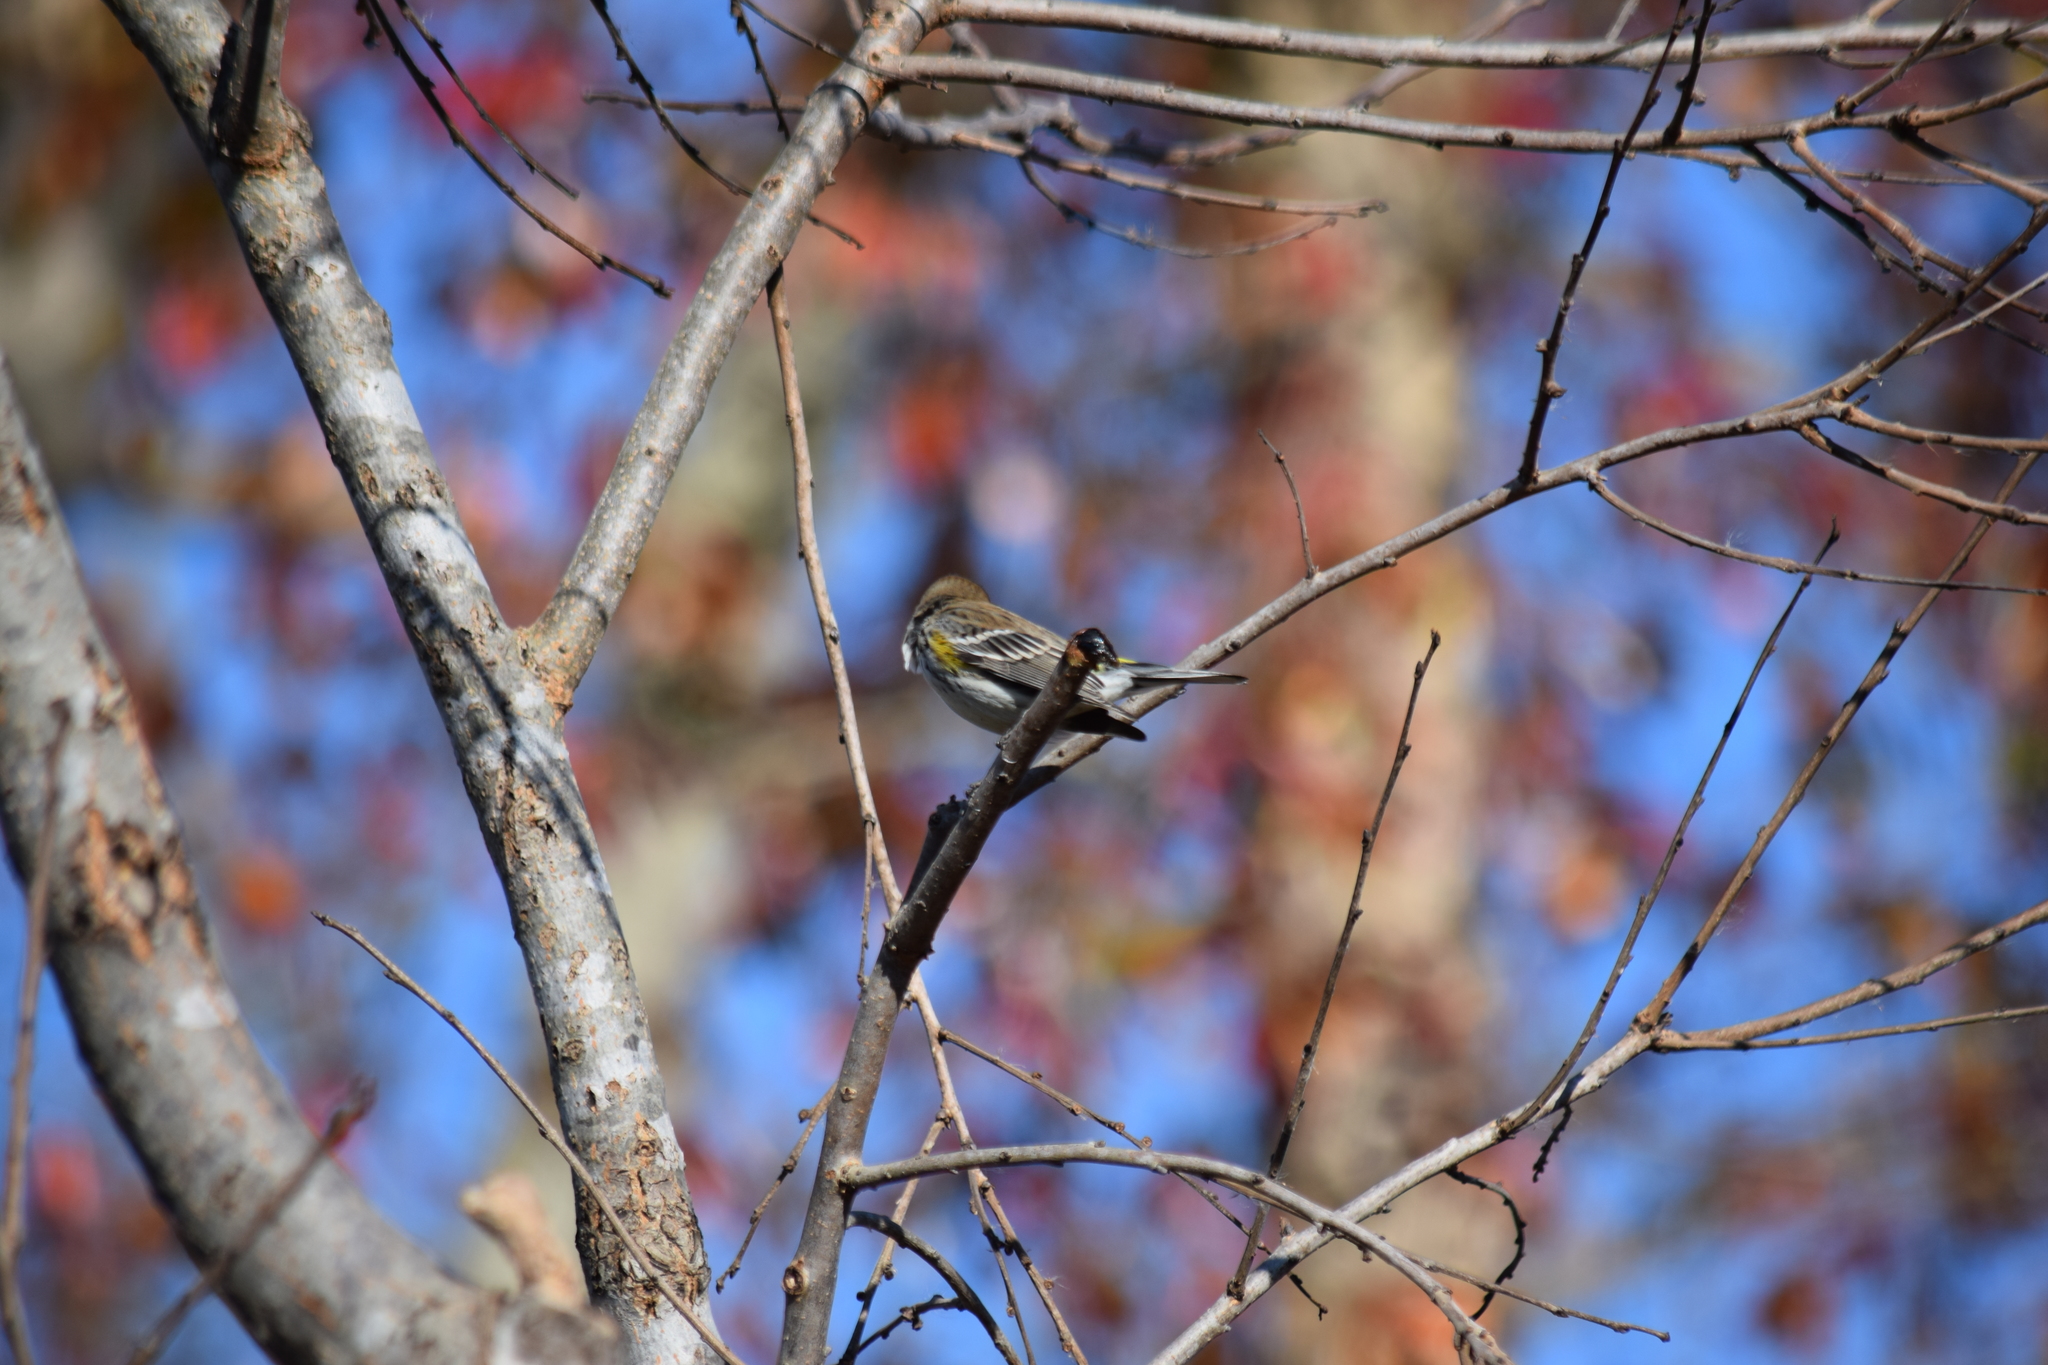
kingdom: Animalia
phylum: Chordata
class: Aves
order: Passeriformes
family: Parulidae
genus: Setophaga
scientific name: Setophaga coronata
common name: Myrtle warbler
